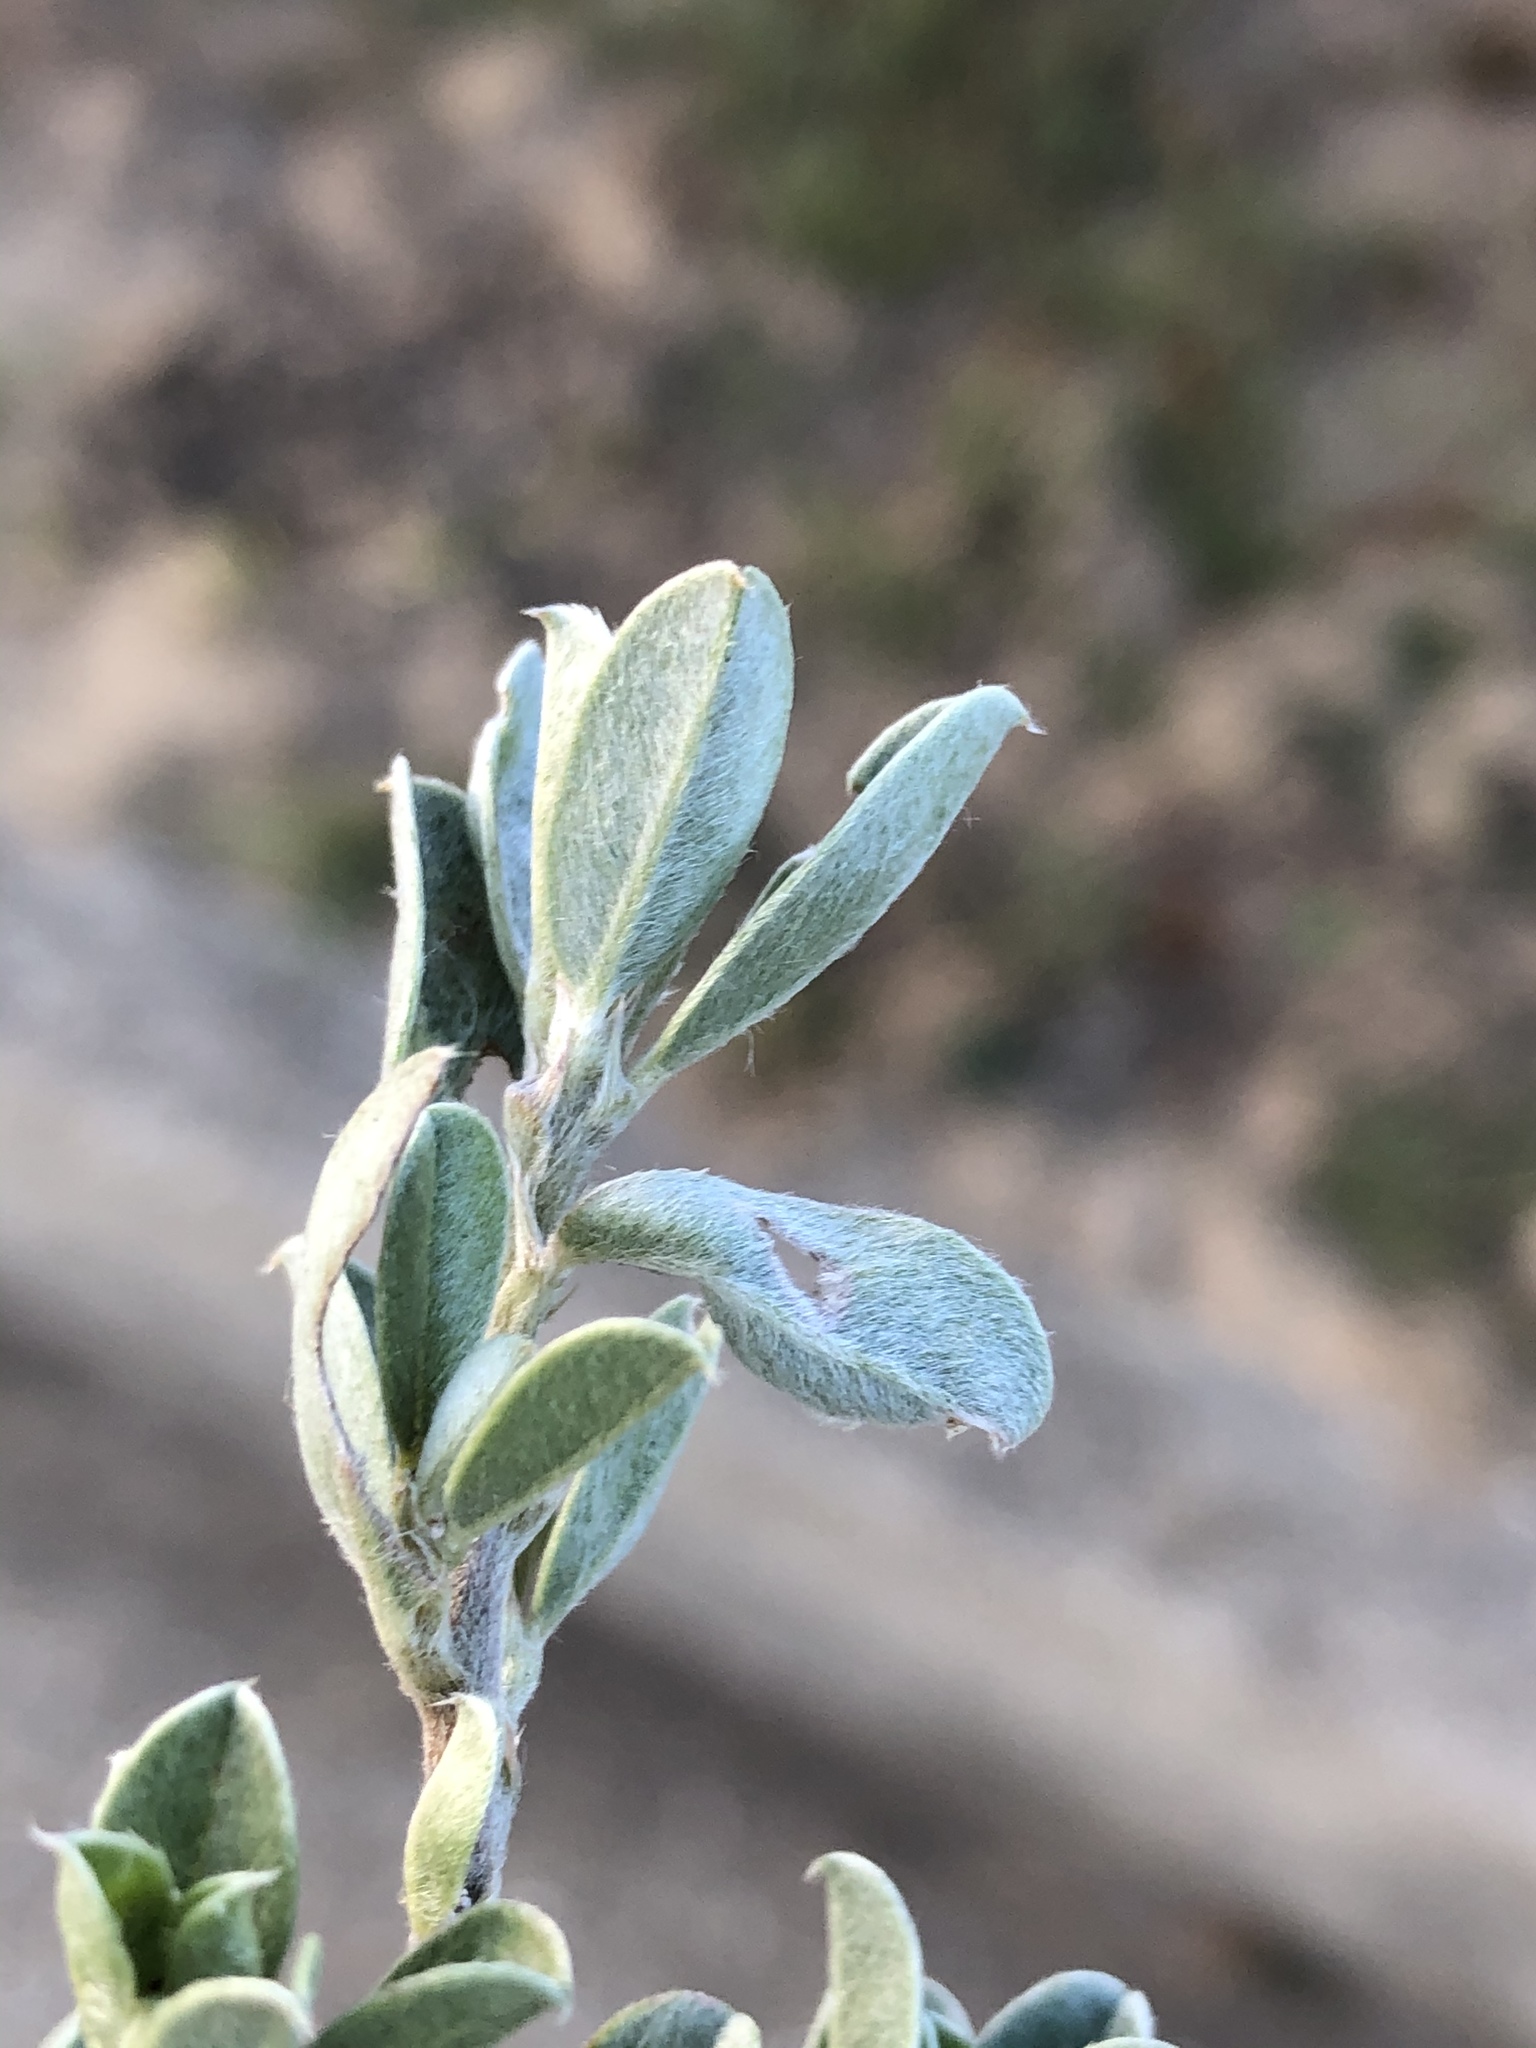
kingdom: Plantae
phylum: Tracheophyta
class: Magnoliopsida
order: Fabales
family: Fabaceae
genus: Podalyria
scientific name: Podalyria myrtillifolia
